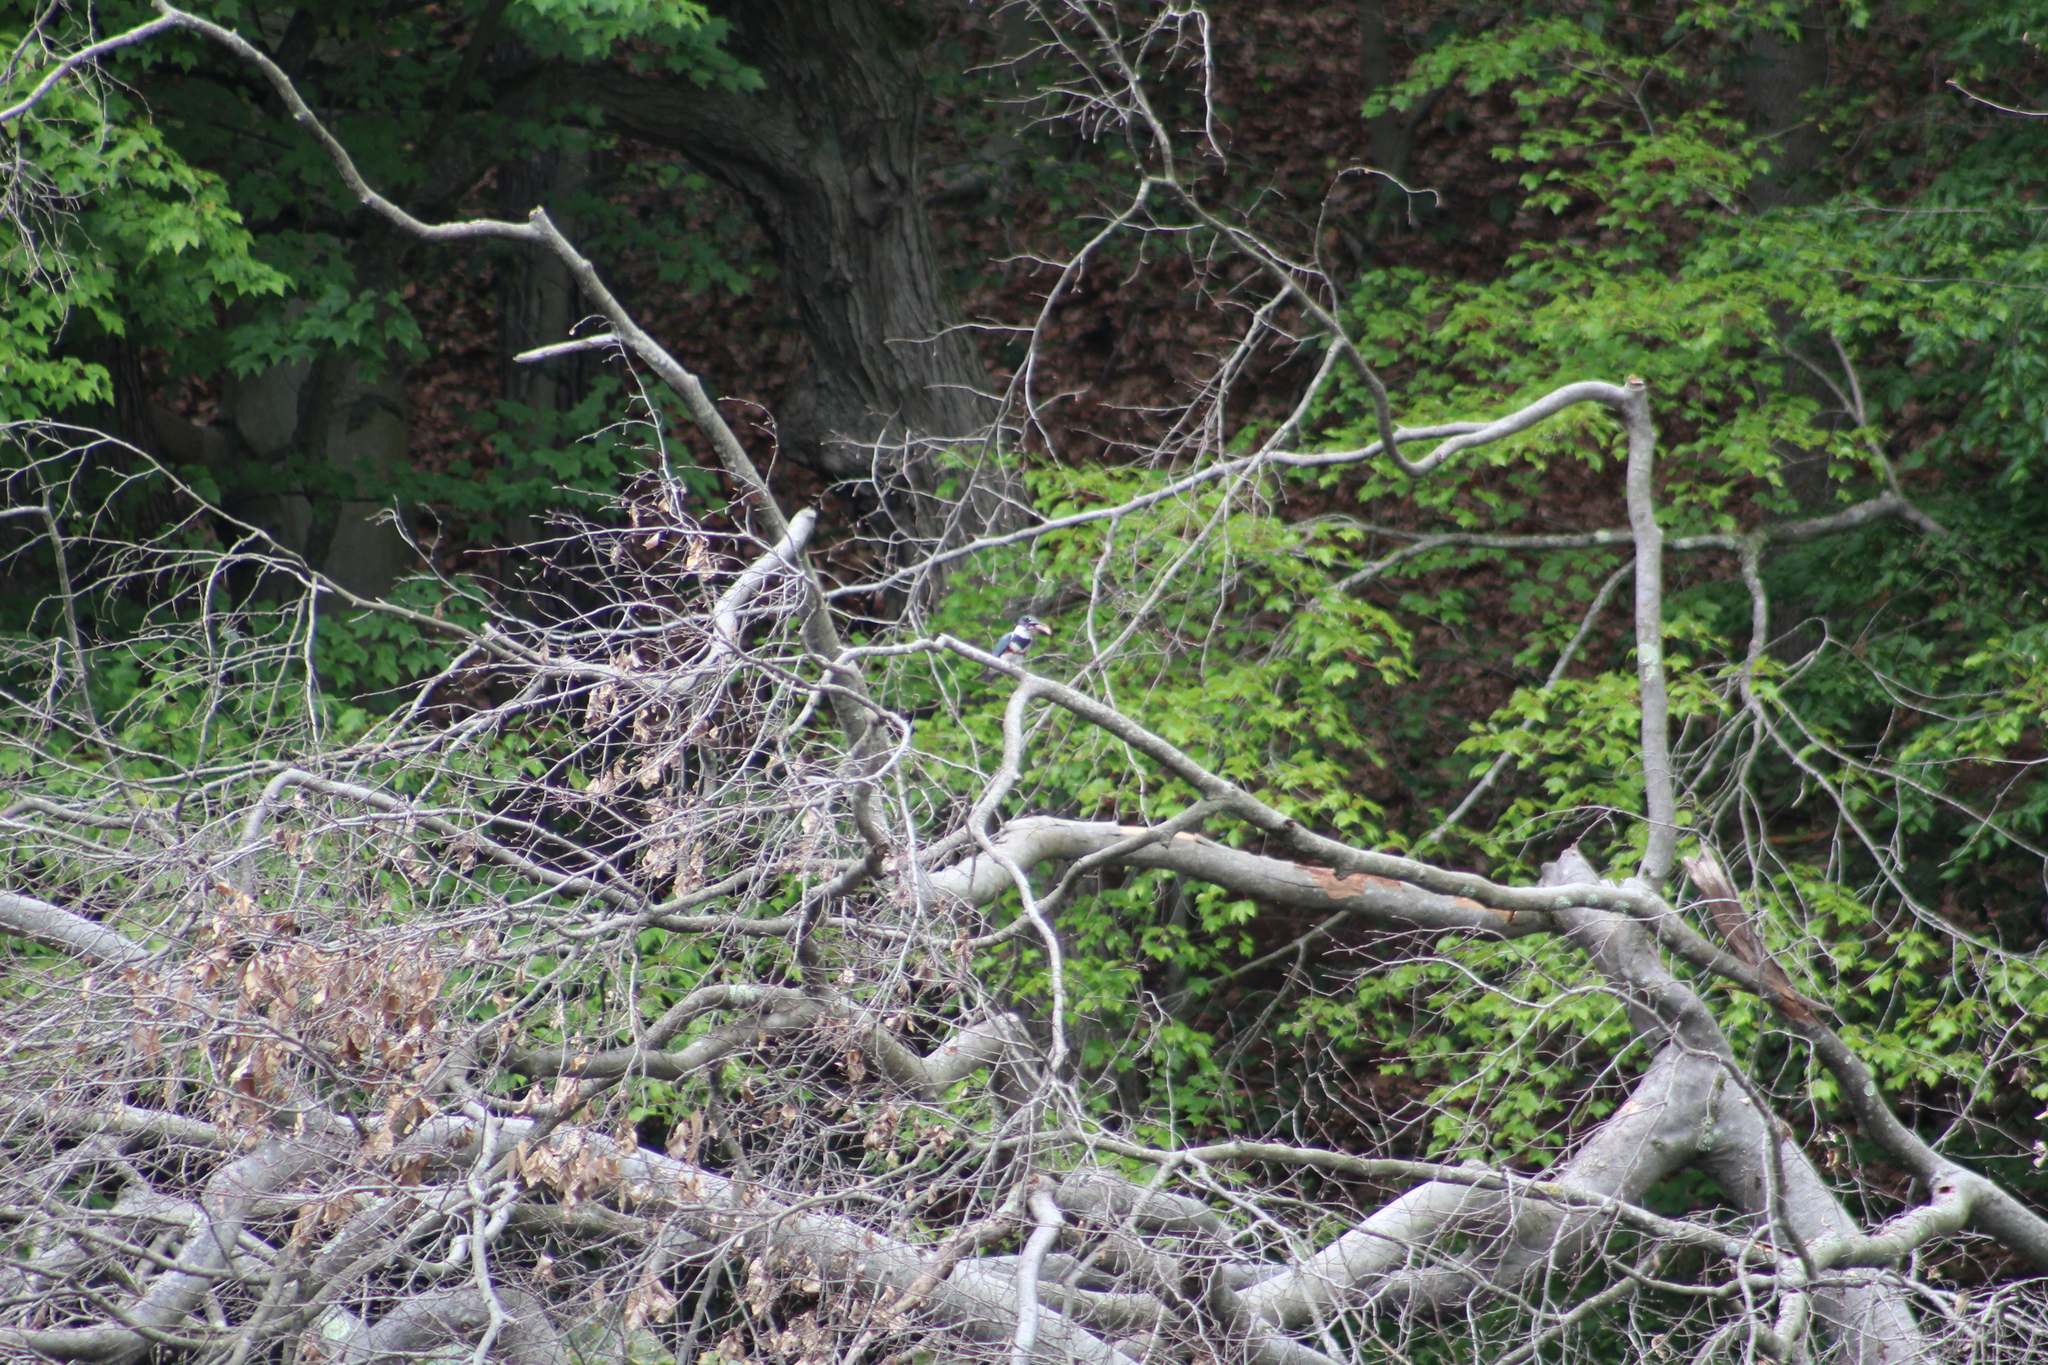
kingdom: Animalia
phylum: Chordata
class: Aves
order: Coraciiformes
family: Alcedinidae
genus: Megaceryle
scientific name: Megaceryle alcyon
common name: Belted kingfisher
